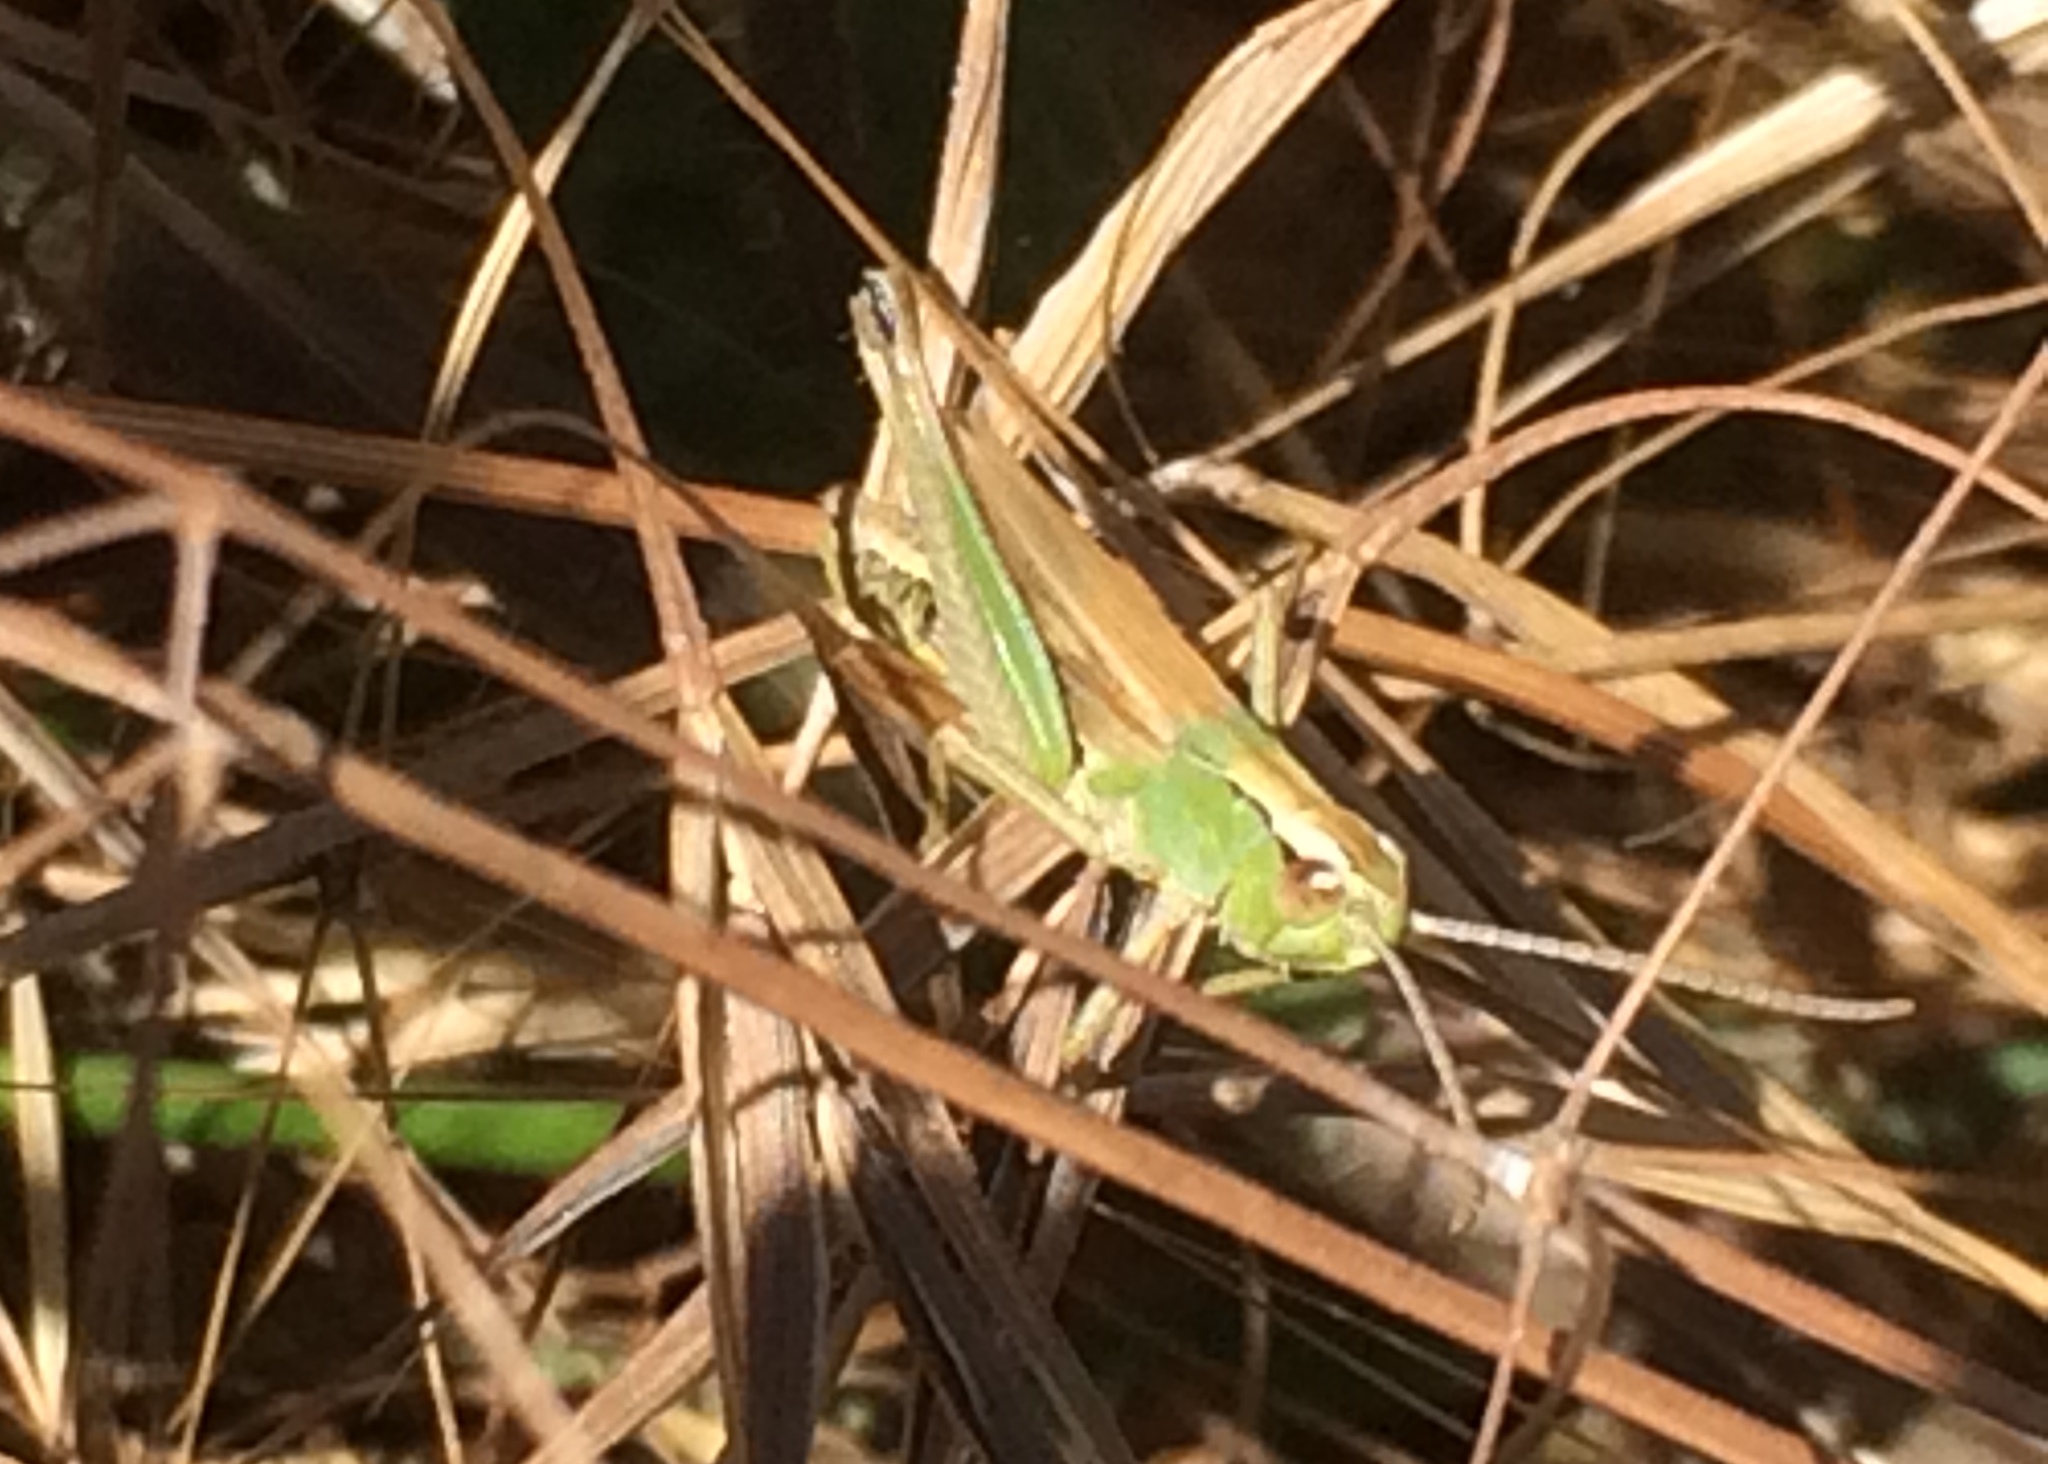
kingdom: Animalia
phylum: Arthropoda
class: Insecta
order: Orthoptera
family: Acrididae
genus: Pseudochorthippus
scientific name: Pseudochorthippus parallelus
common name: Meadow grasshopper
